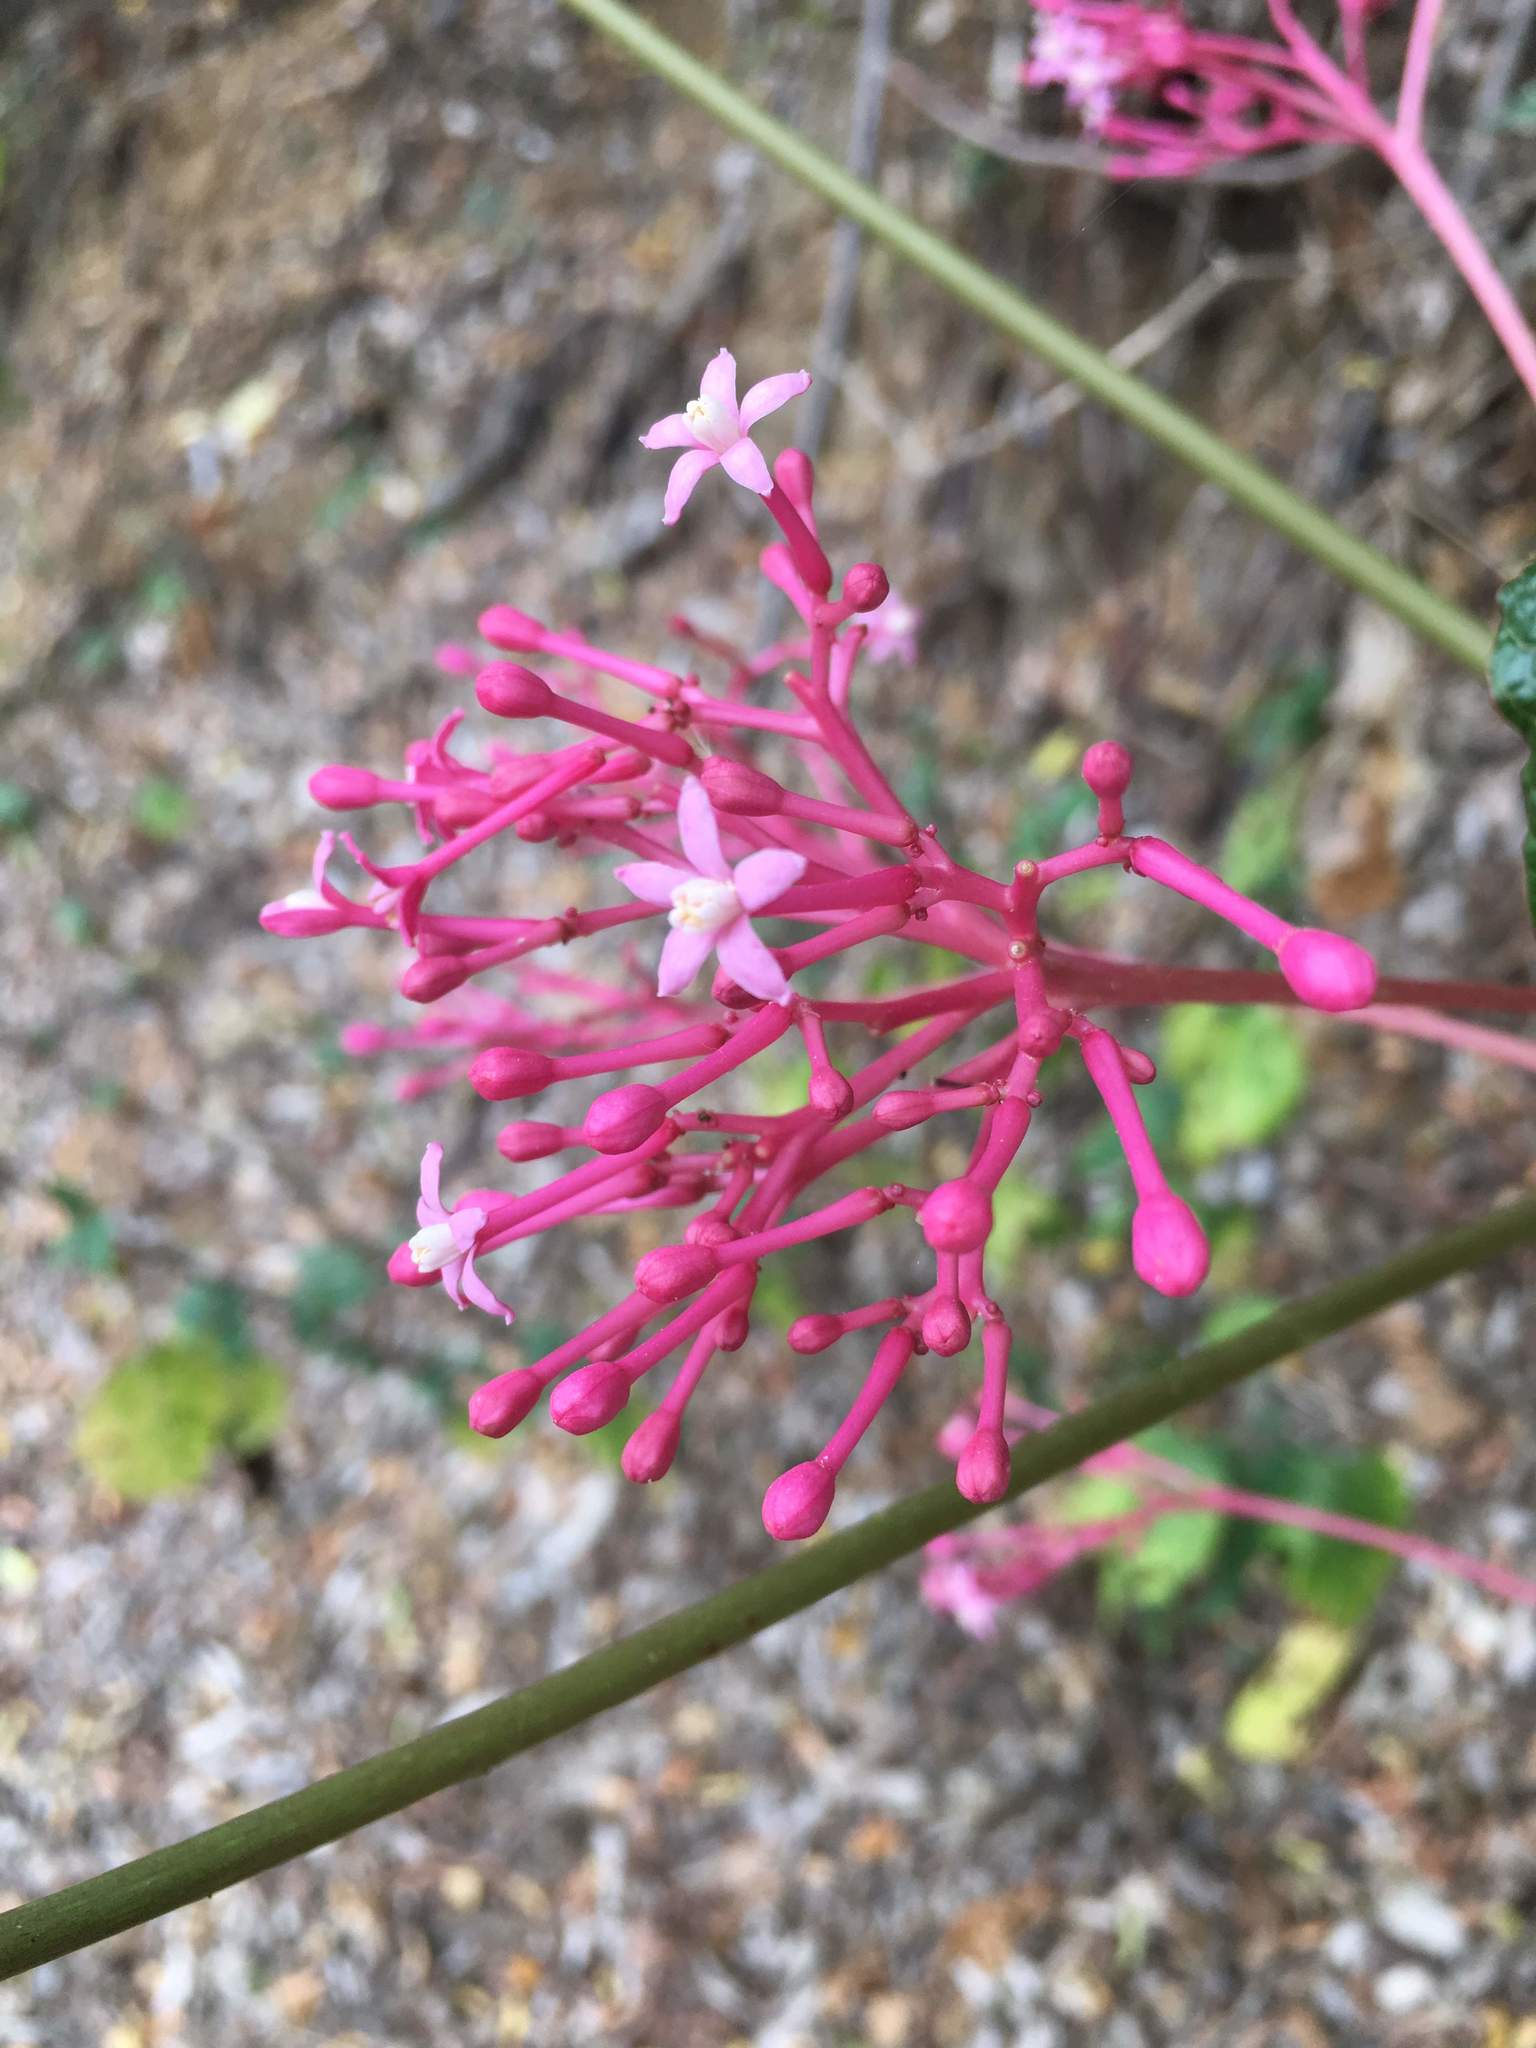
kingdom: Plantae
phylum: Tracheophyta
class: Magnoliopsida
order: Brassicales
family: Caricaceae
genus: Vasconcellea
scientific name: Vasconcellea parviflora
